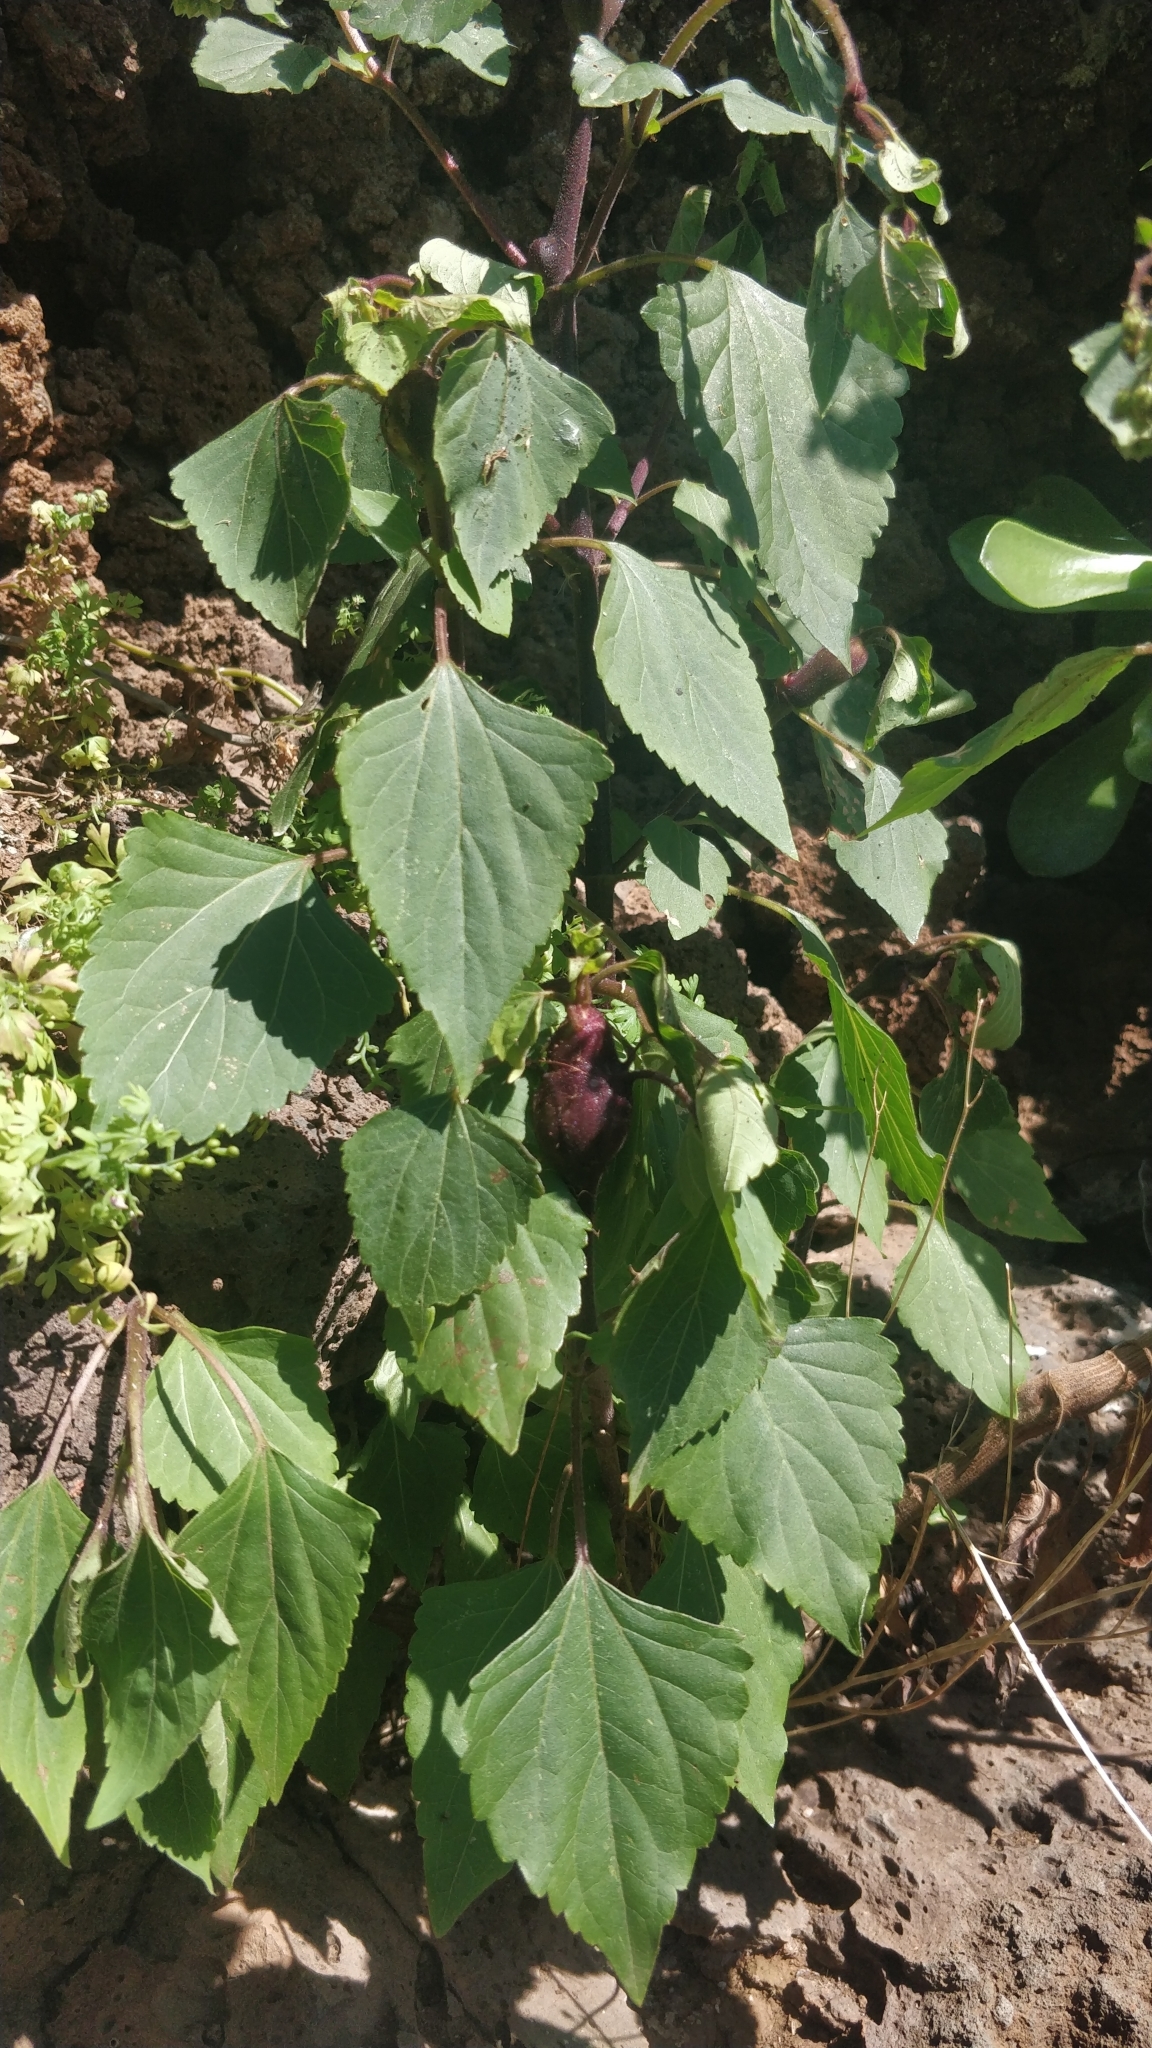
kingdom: Plantae
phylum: Tracheophyta
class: Magnoliopsida
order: Asterales
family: Asteraceae
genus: Ageratina
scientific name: Ageratina adenophora
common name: Sticky snakeroot
